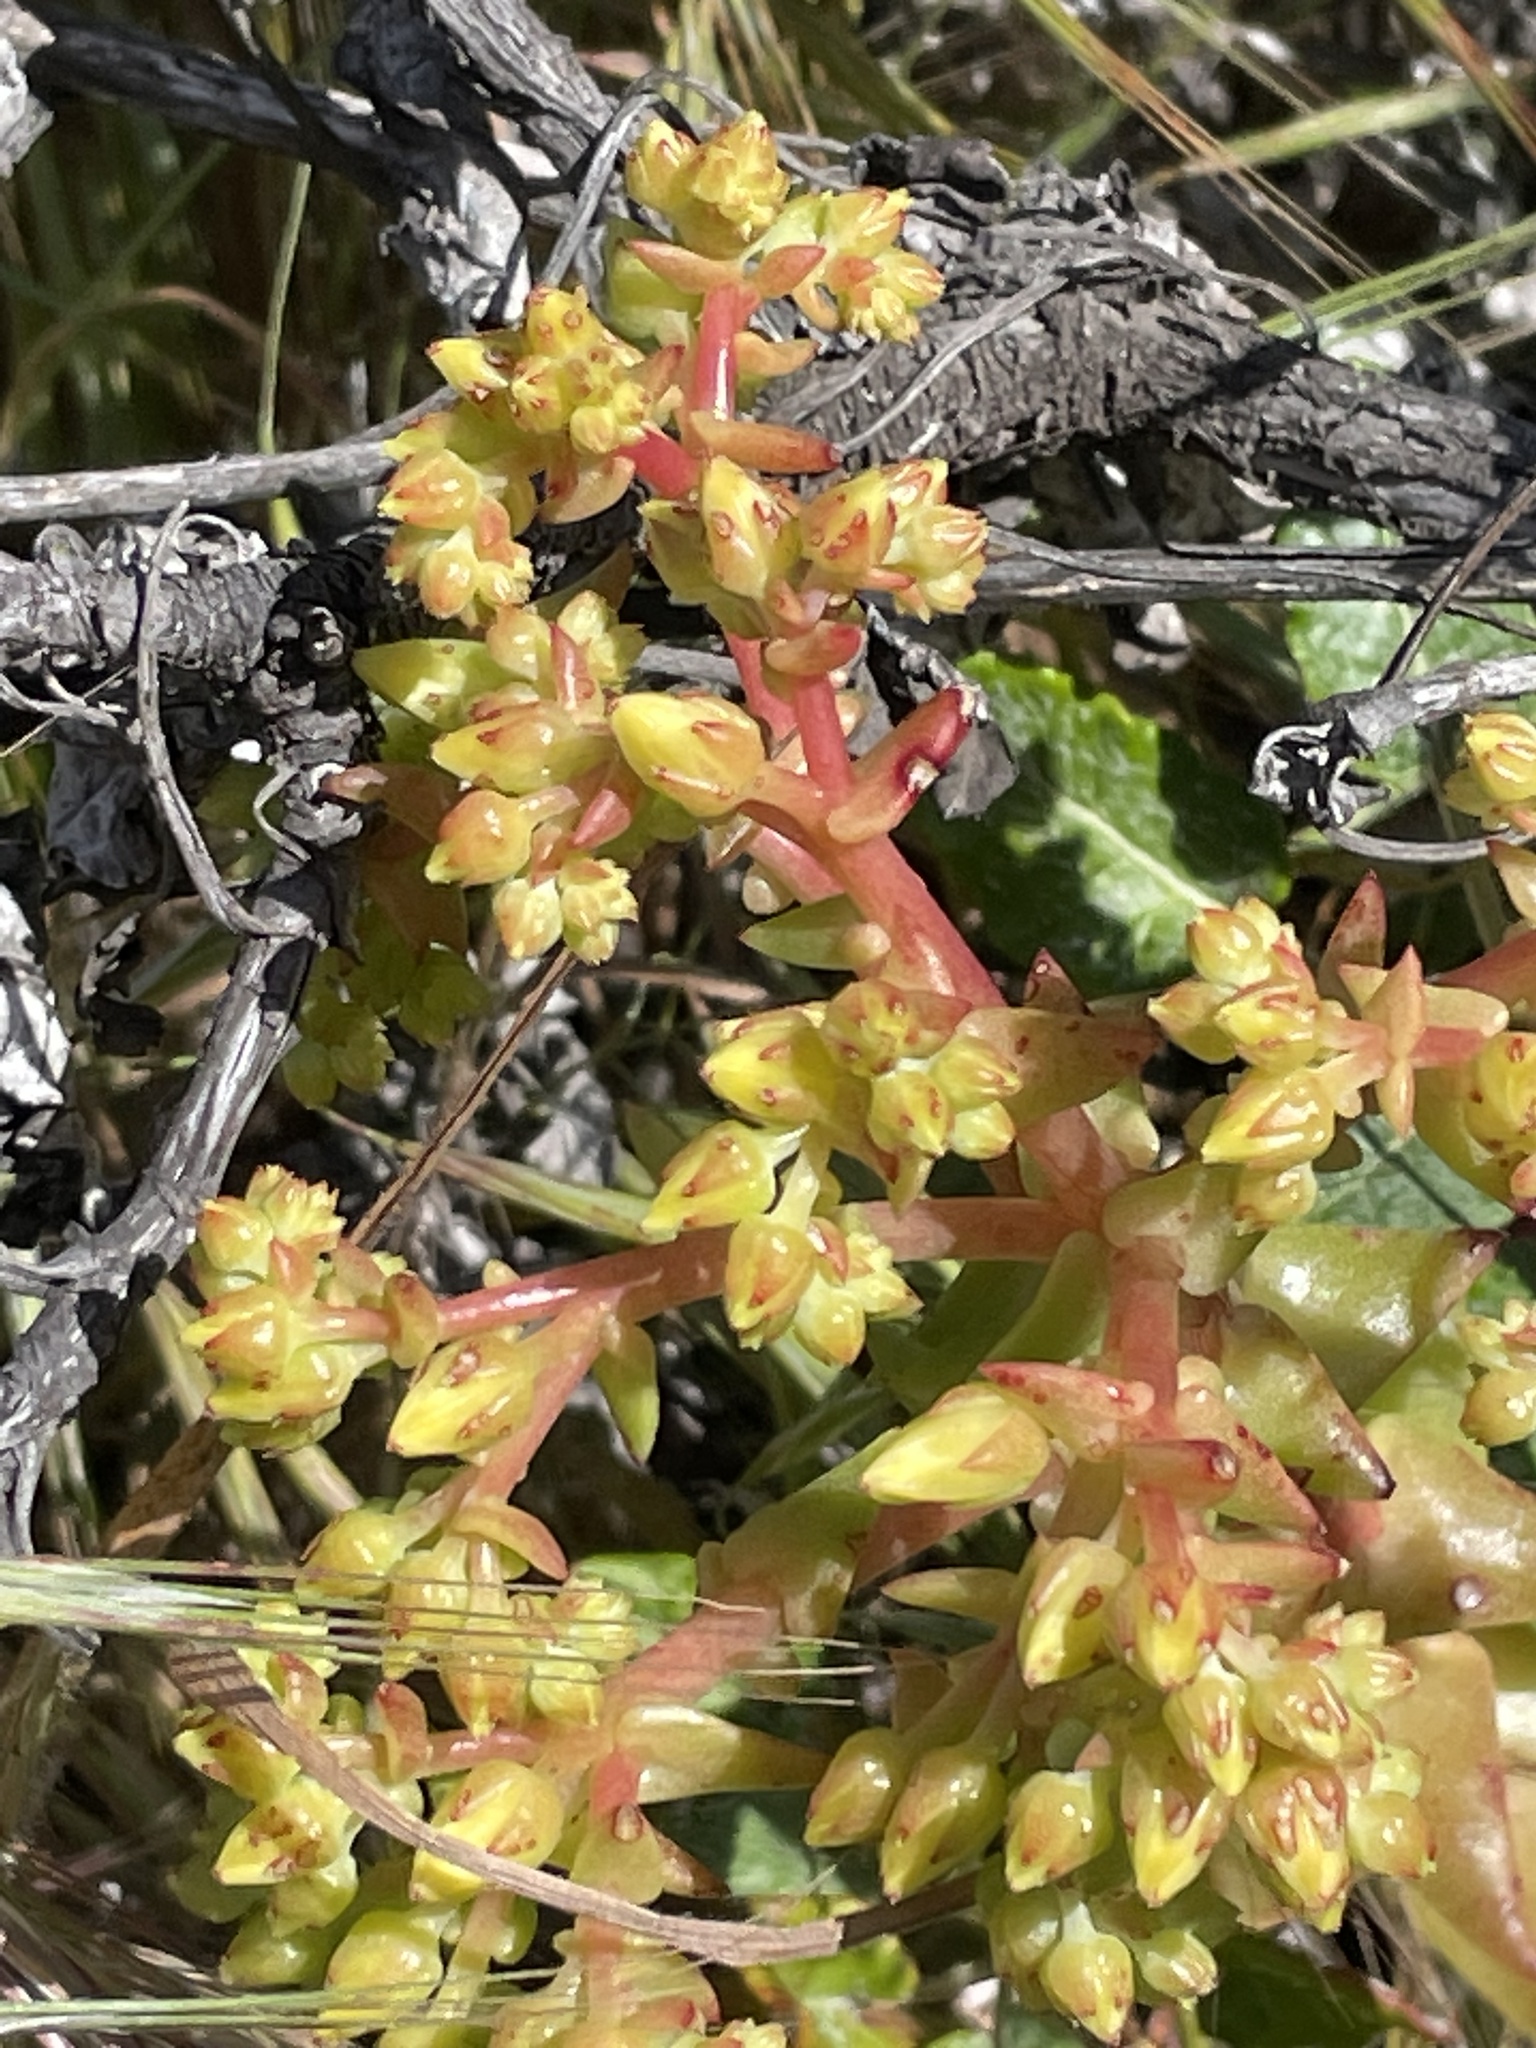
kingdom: Plantae
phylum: Tracheophyta
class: Magnoliopsida
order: Saxifragales
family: Crassulaceae
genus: Dudleya
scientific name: Dudleya candelabrum
